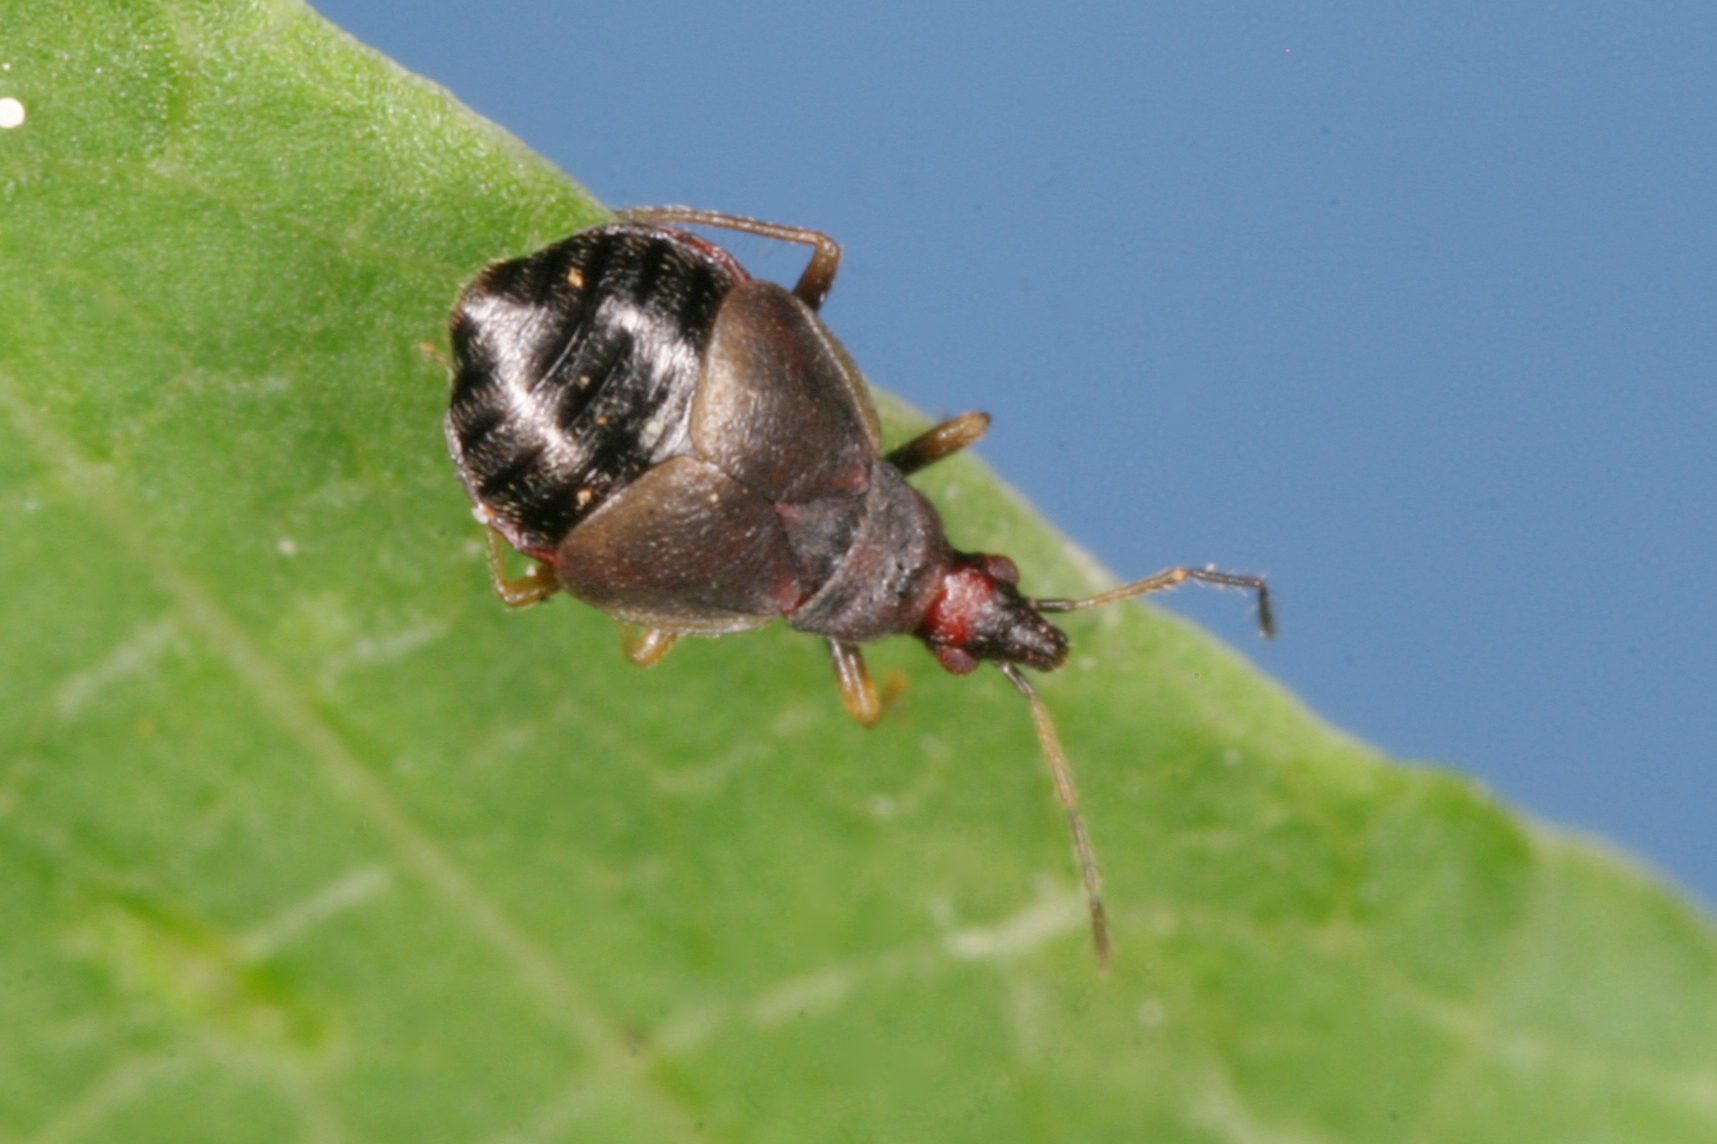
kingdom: Animalia
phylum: Arthropoda
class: Insecta
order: Hemiptera
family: Microphysidae
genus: Loricula
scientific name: Loricula pselaphiformis
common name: Minute bladder bug
